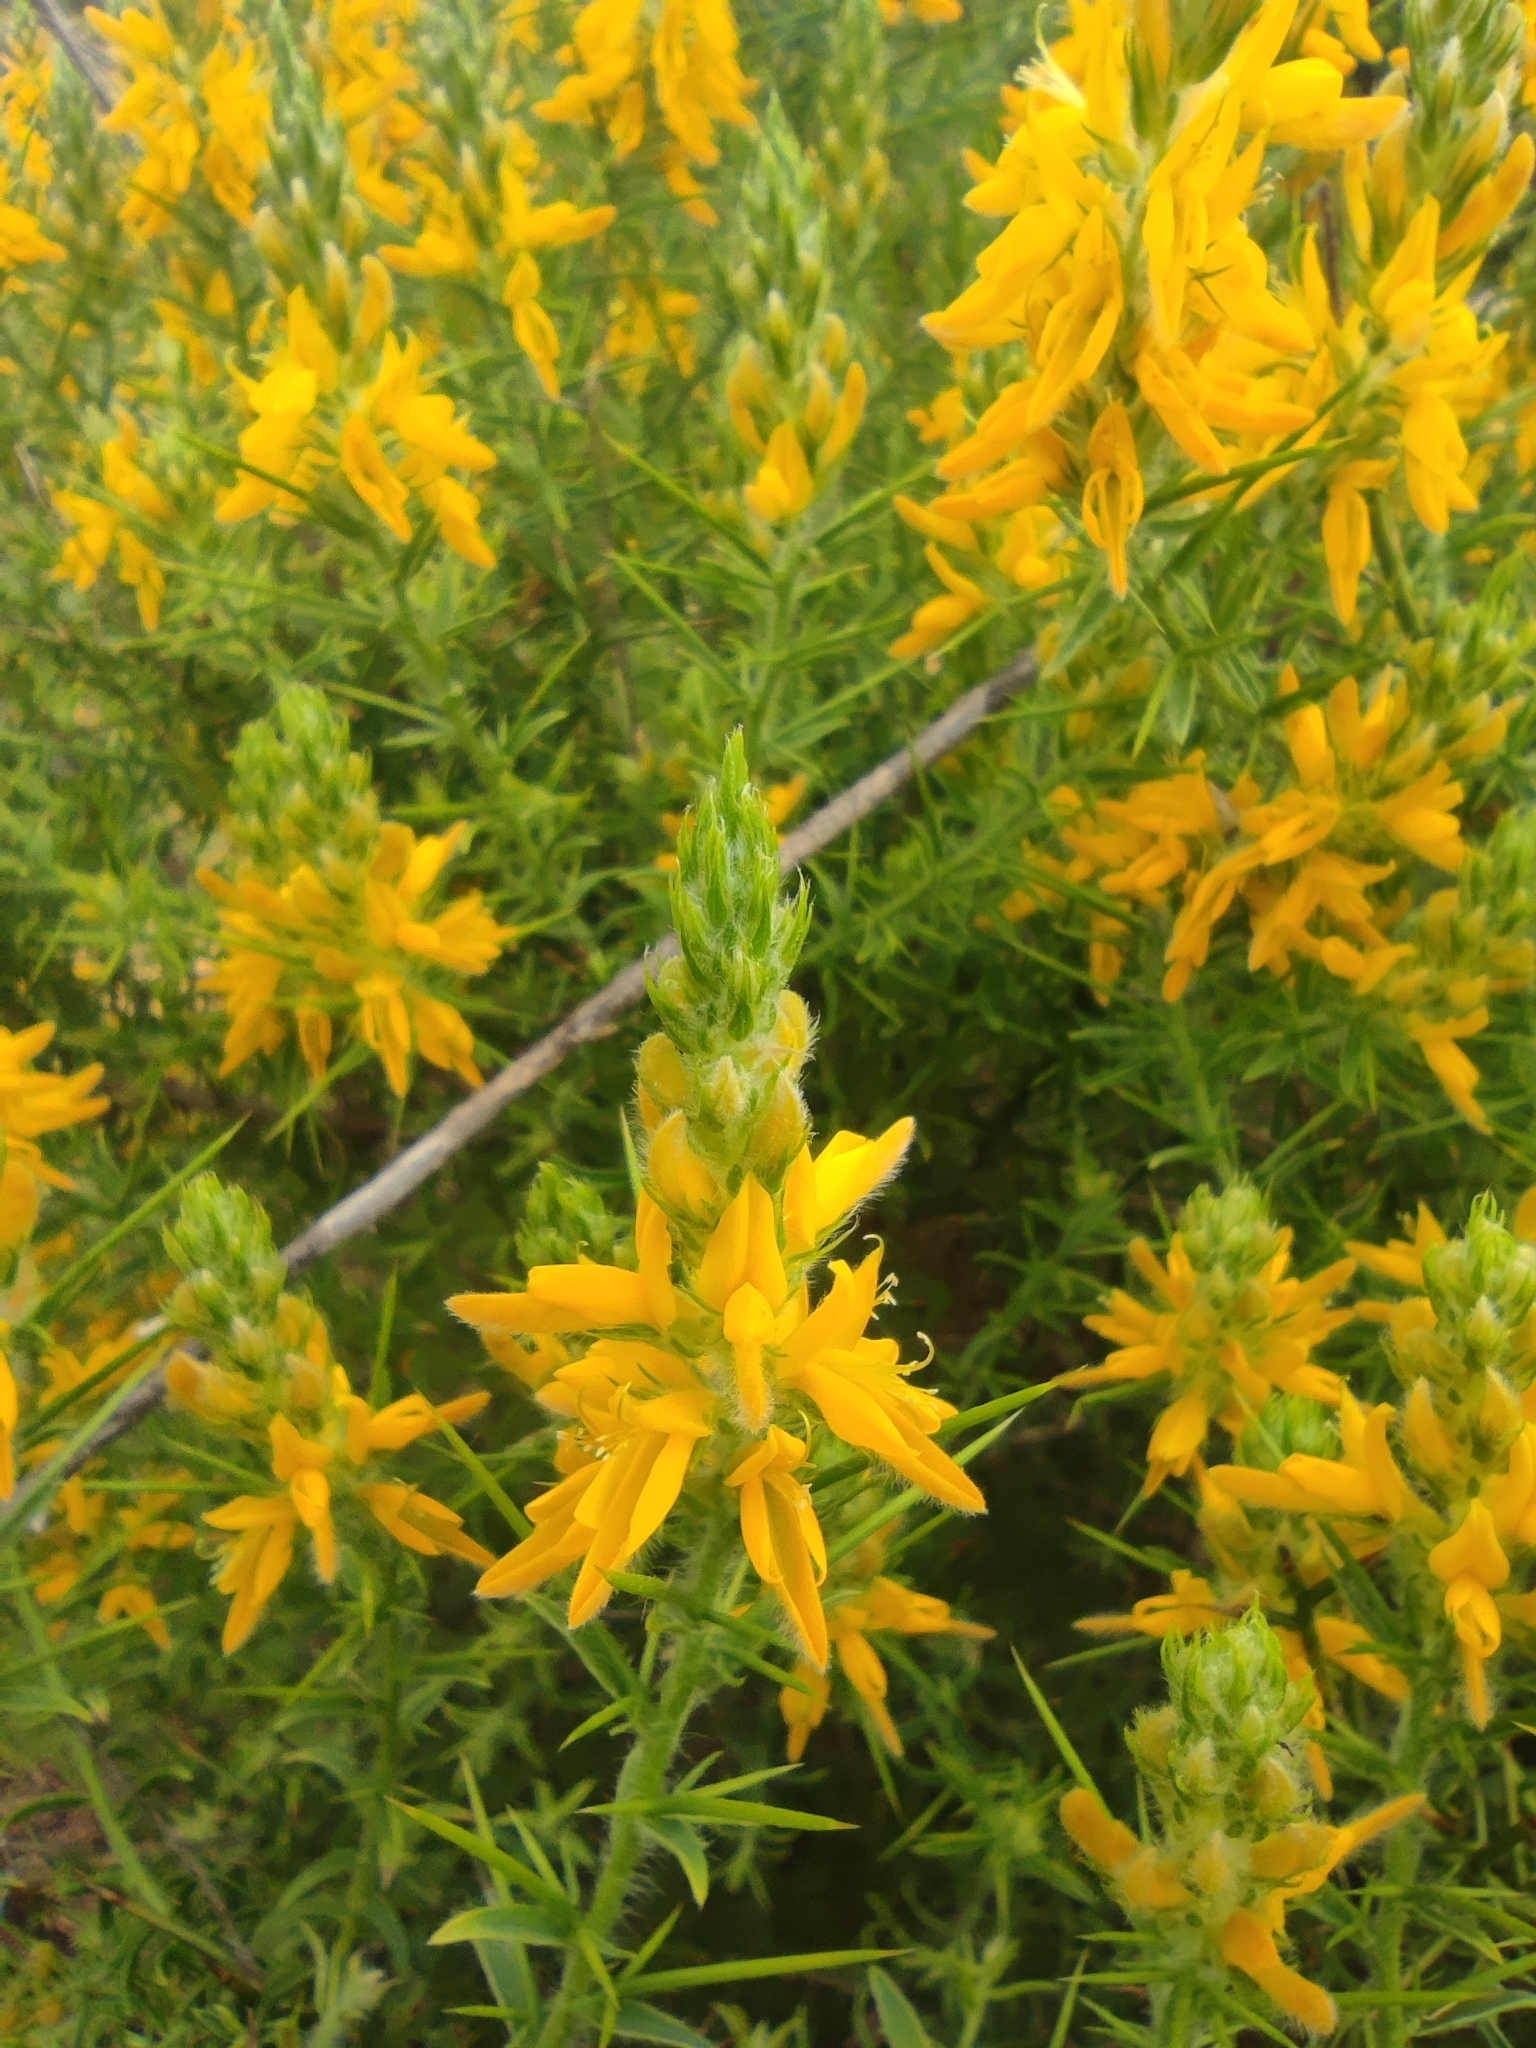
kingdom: Plantae
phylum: Tracheophyta
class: Magnoliopsida
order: Fabales
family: Fabaceae
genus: Genista
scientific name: Genista hirsuta
